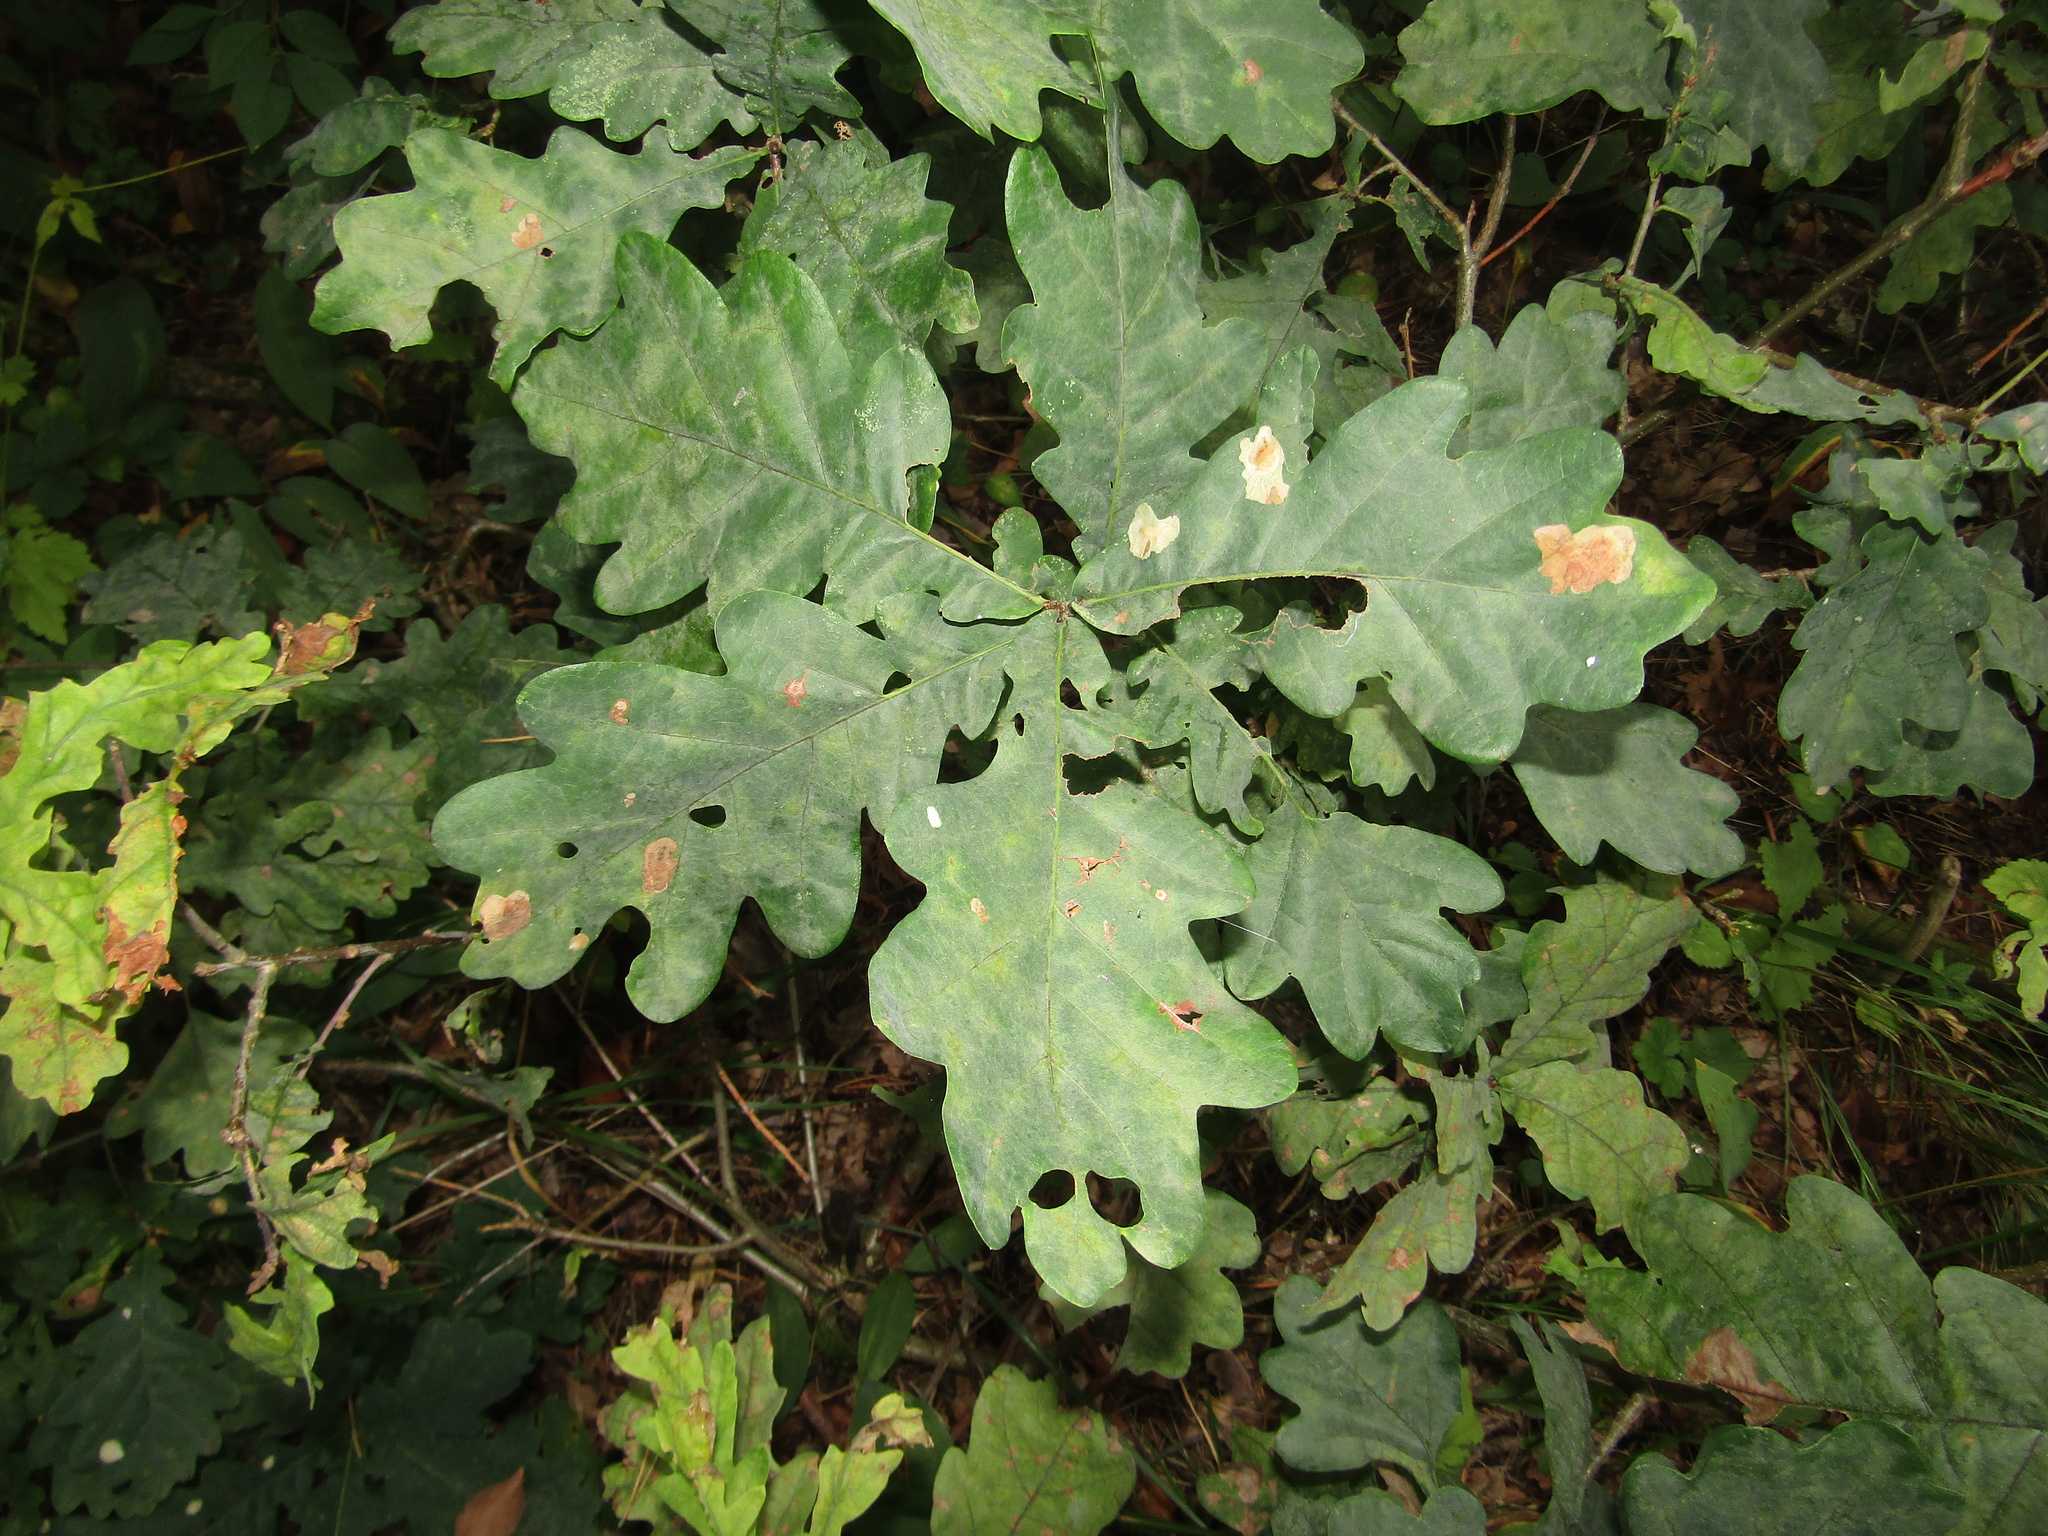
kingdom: Plantae
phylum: Tracheophyta
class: Magnoliopsida
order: Fagales
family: Fagaceae
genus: Quercus
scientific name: Quercus robur
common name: Pedunculate oak
